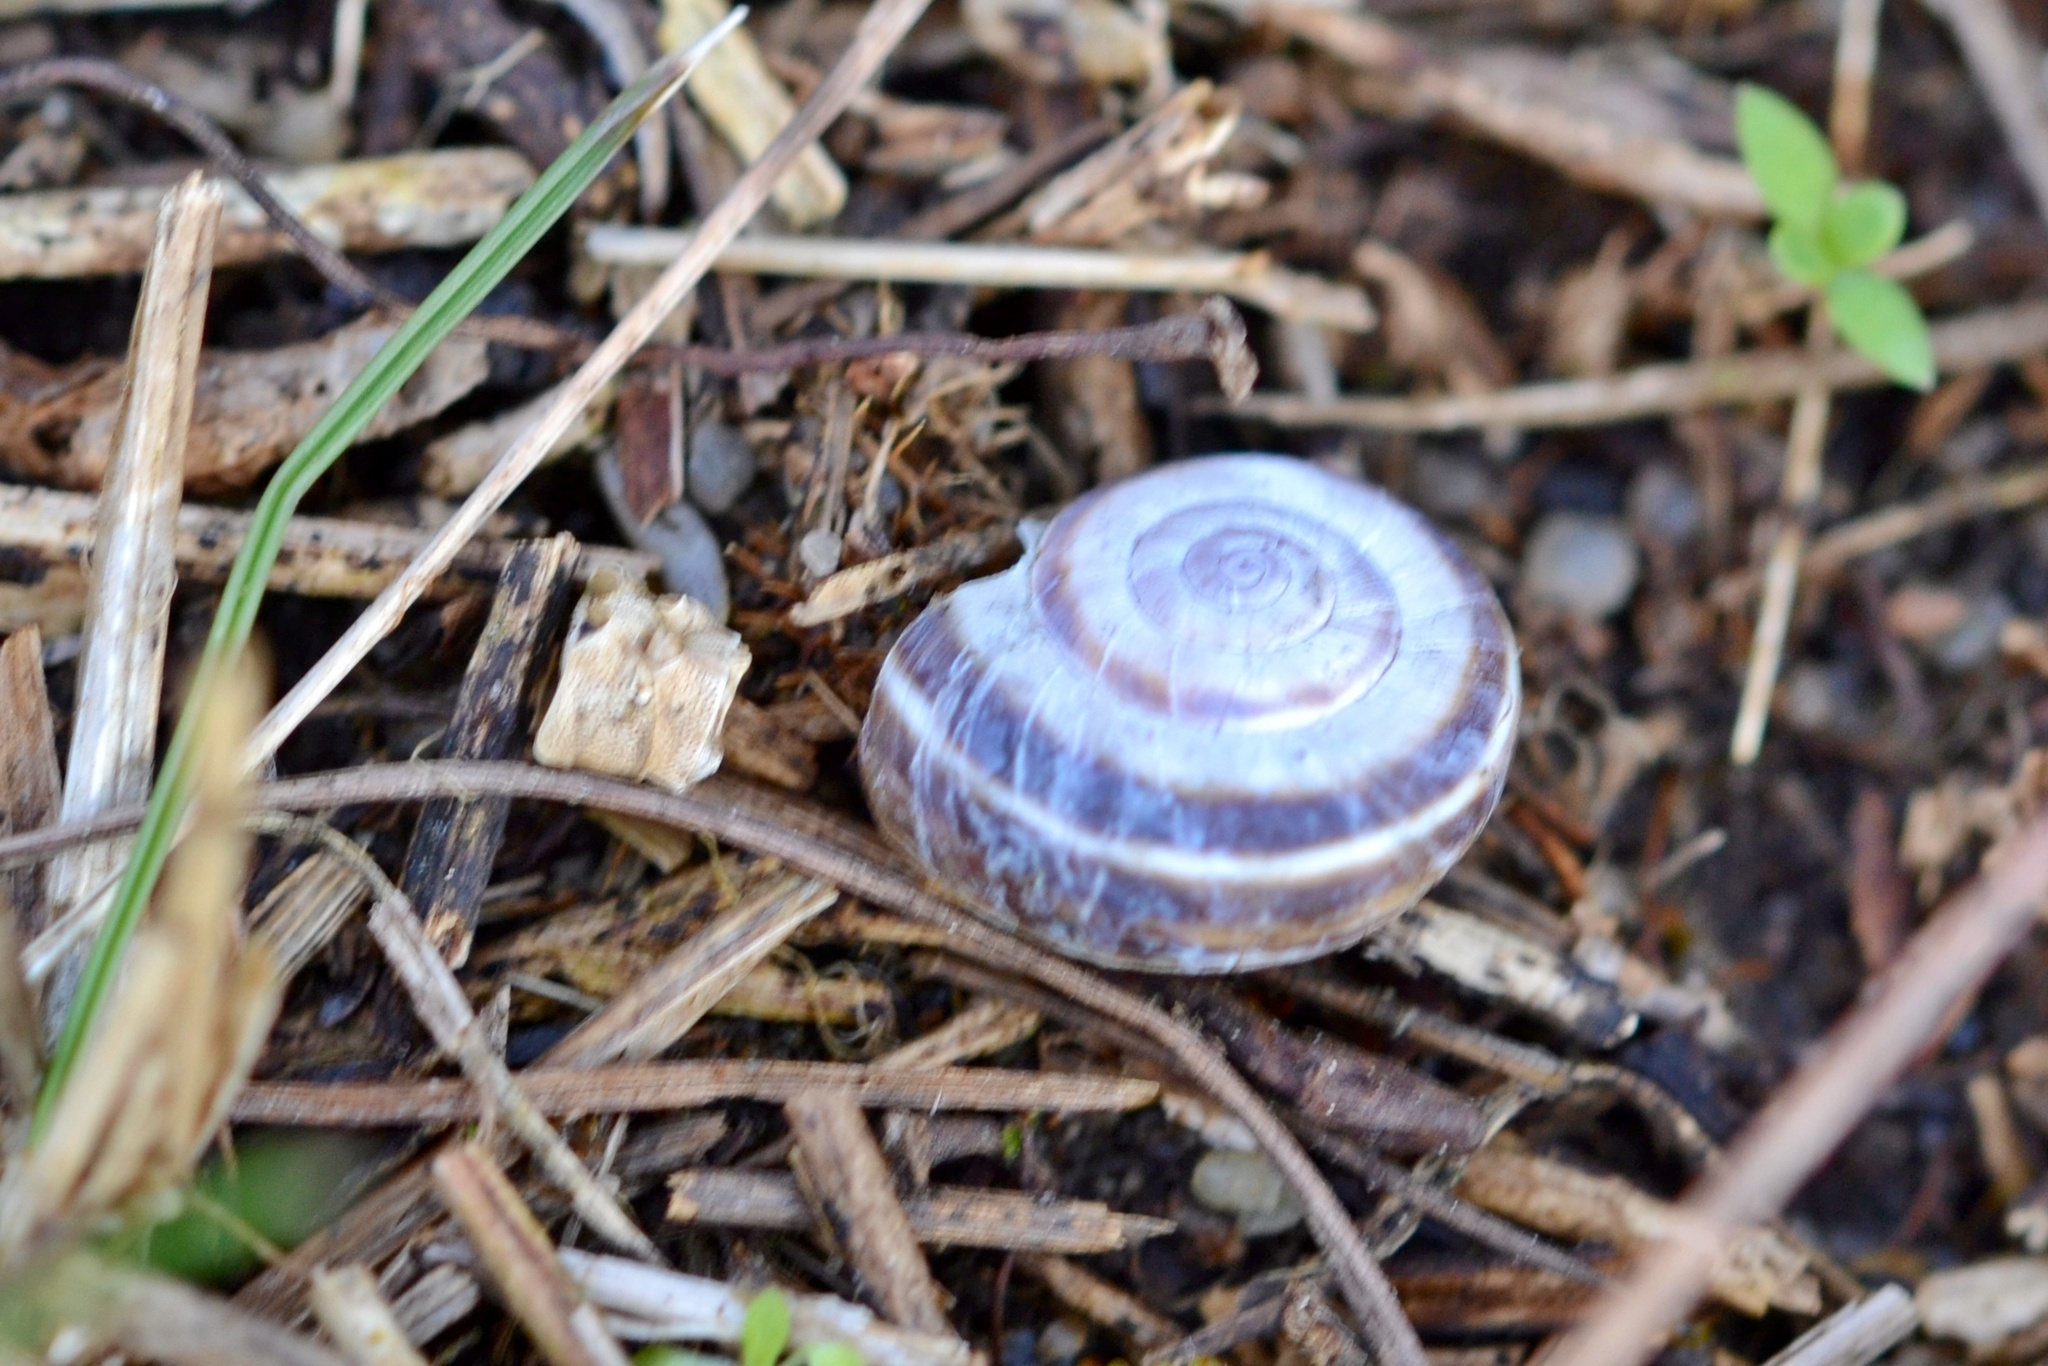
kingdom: Animalia
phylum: Mollusca
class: Gastropoda
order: Stylommatophora
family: Geomitridae
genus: Xerolenta
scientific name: Xerolenta obvia
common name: White heath snail
